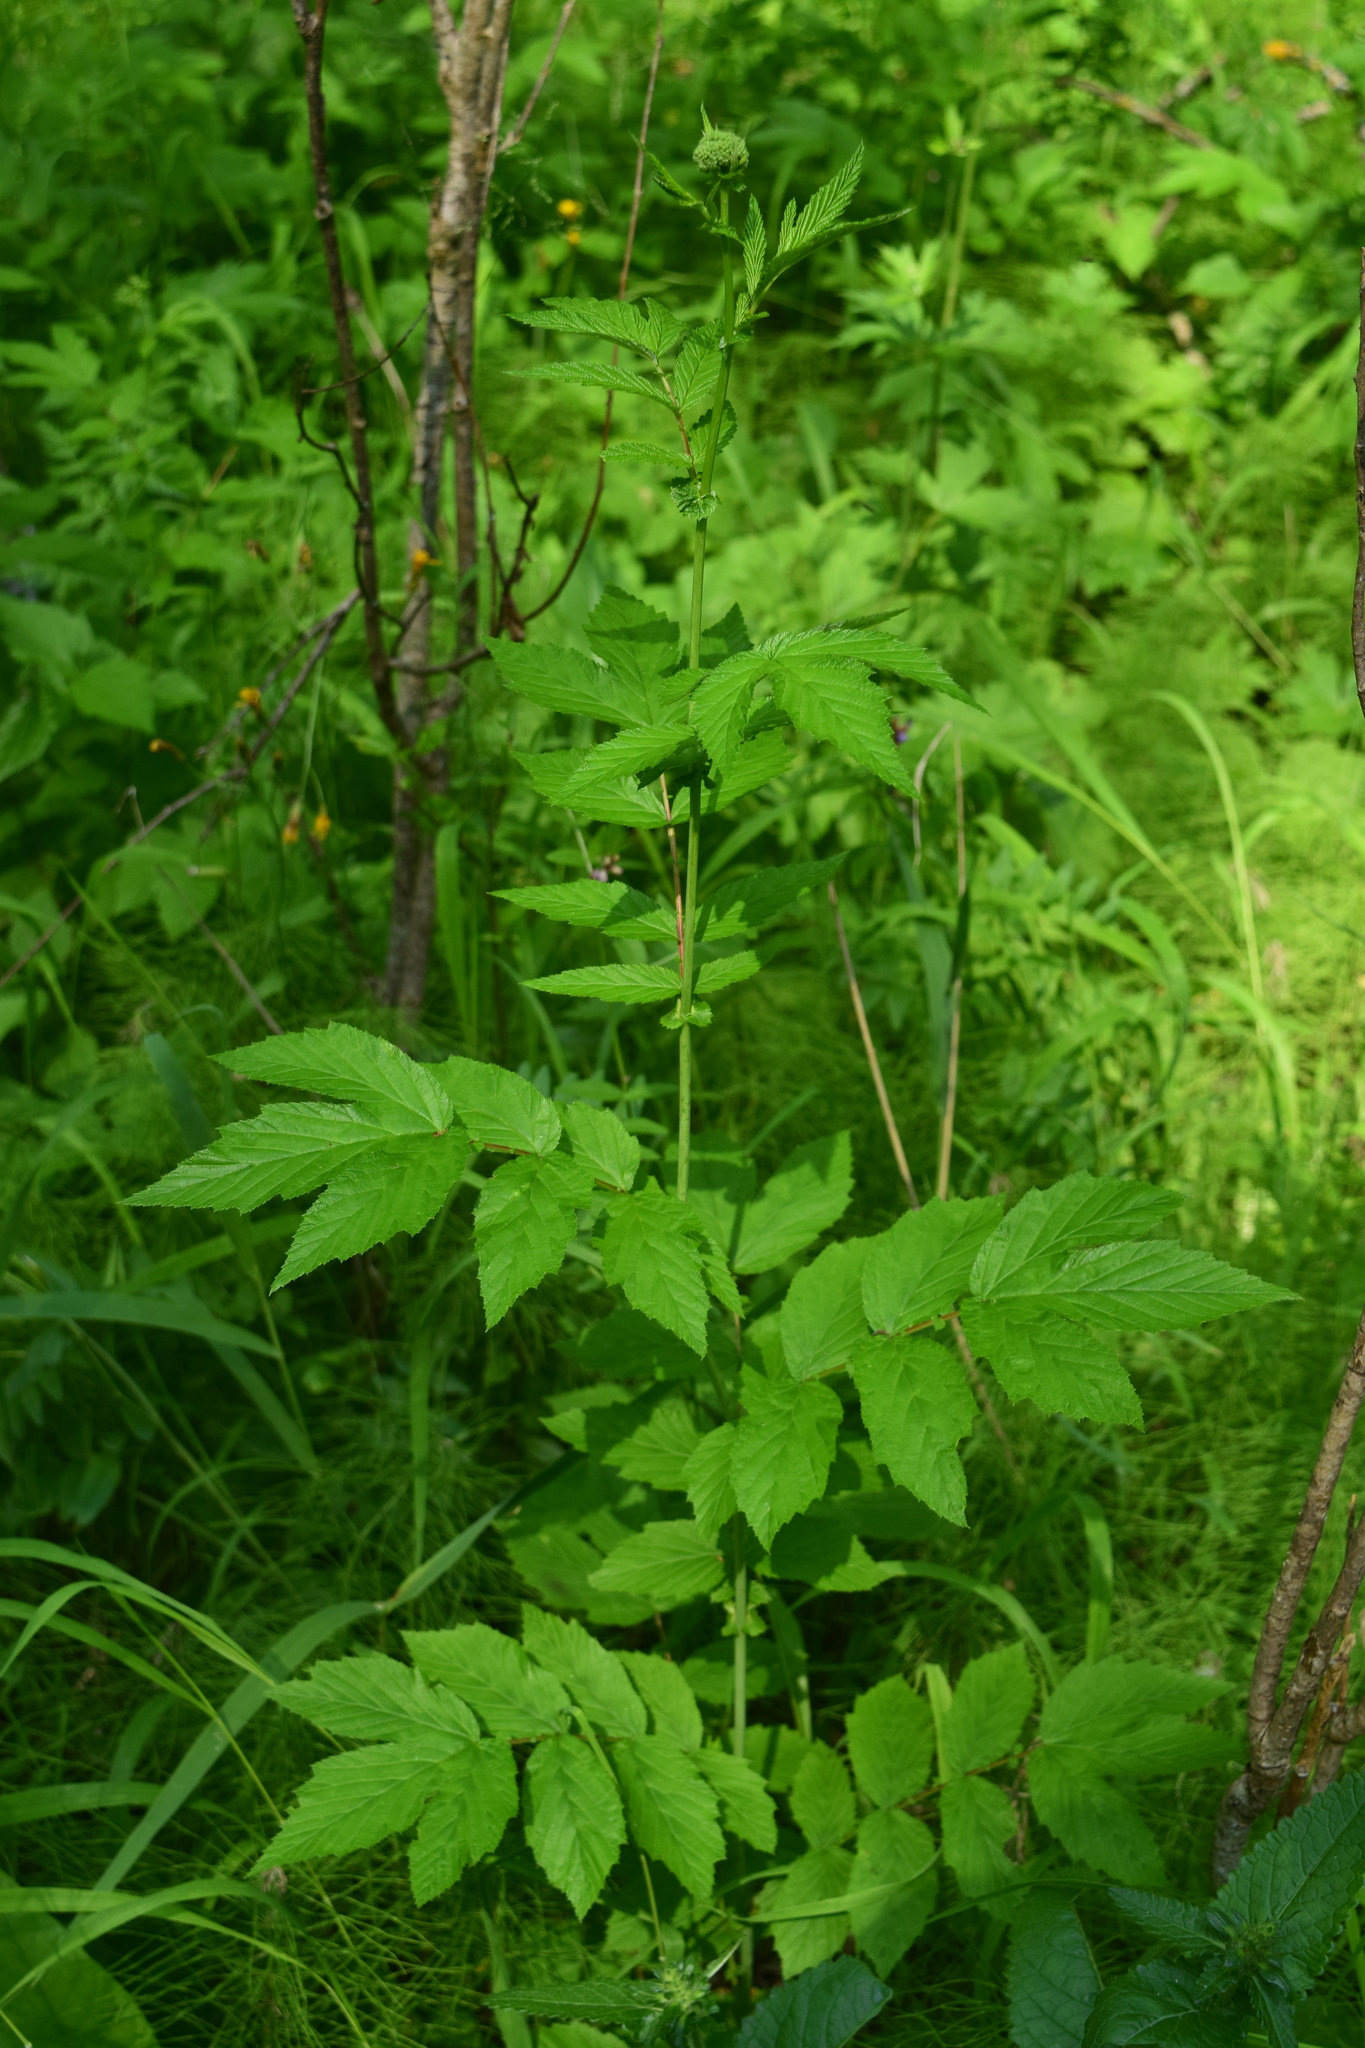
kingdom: Plantae
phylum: Tracheophyta
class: Magnoliopsida
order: Rosales
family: Rosaceae
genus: Filipendula
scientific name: Filipendula ulmaria
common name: Meadowsweet
